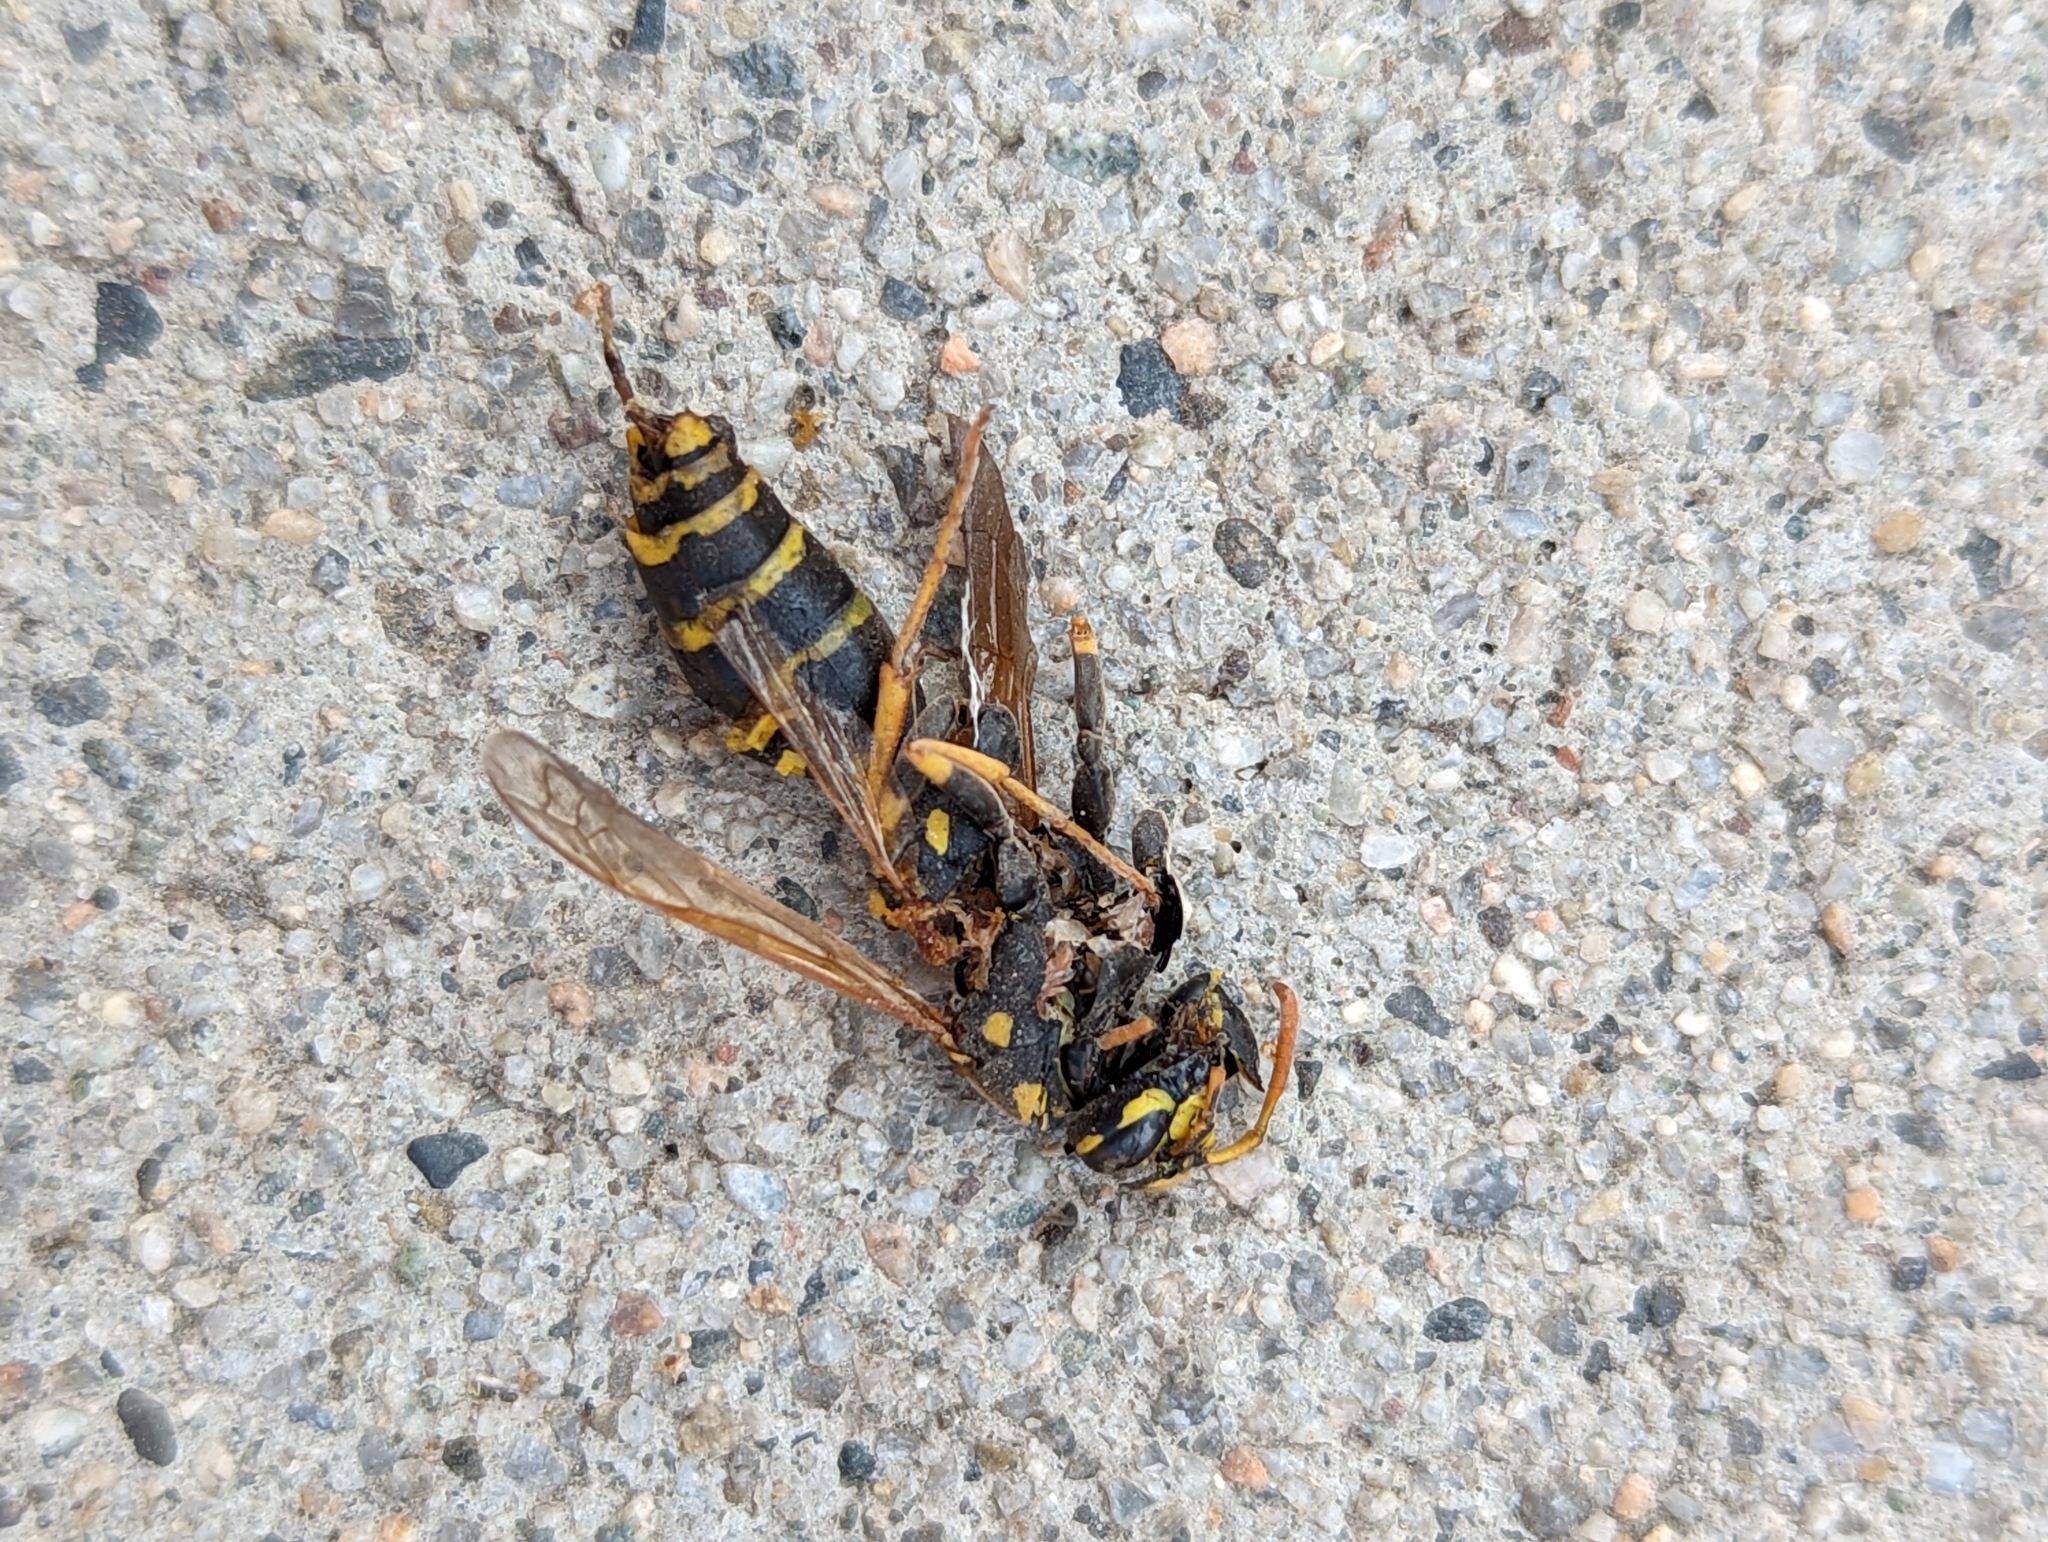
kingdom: Animalia
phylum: Arthropoda
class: Insecta
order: Hymenoptera
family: Eumenidae
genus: Polistes
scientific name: Polistes dominula
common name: Paper wasp
